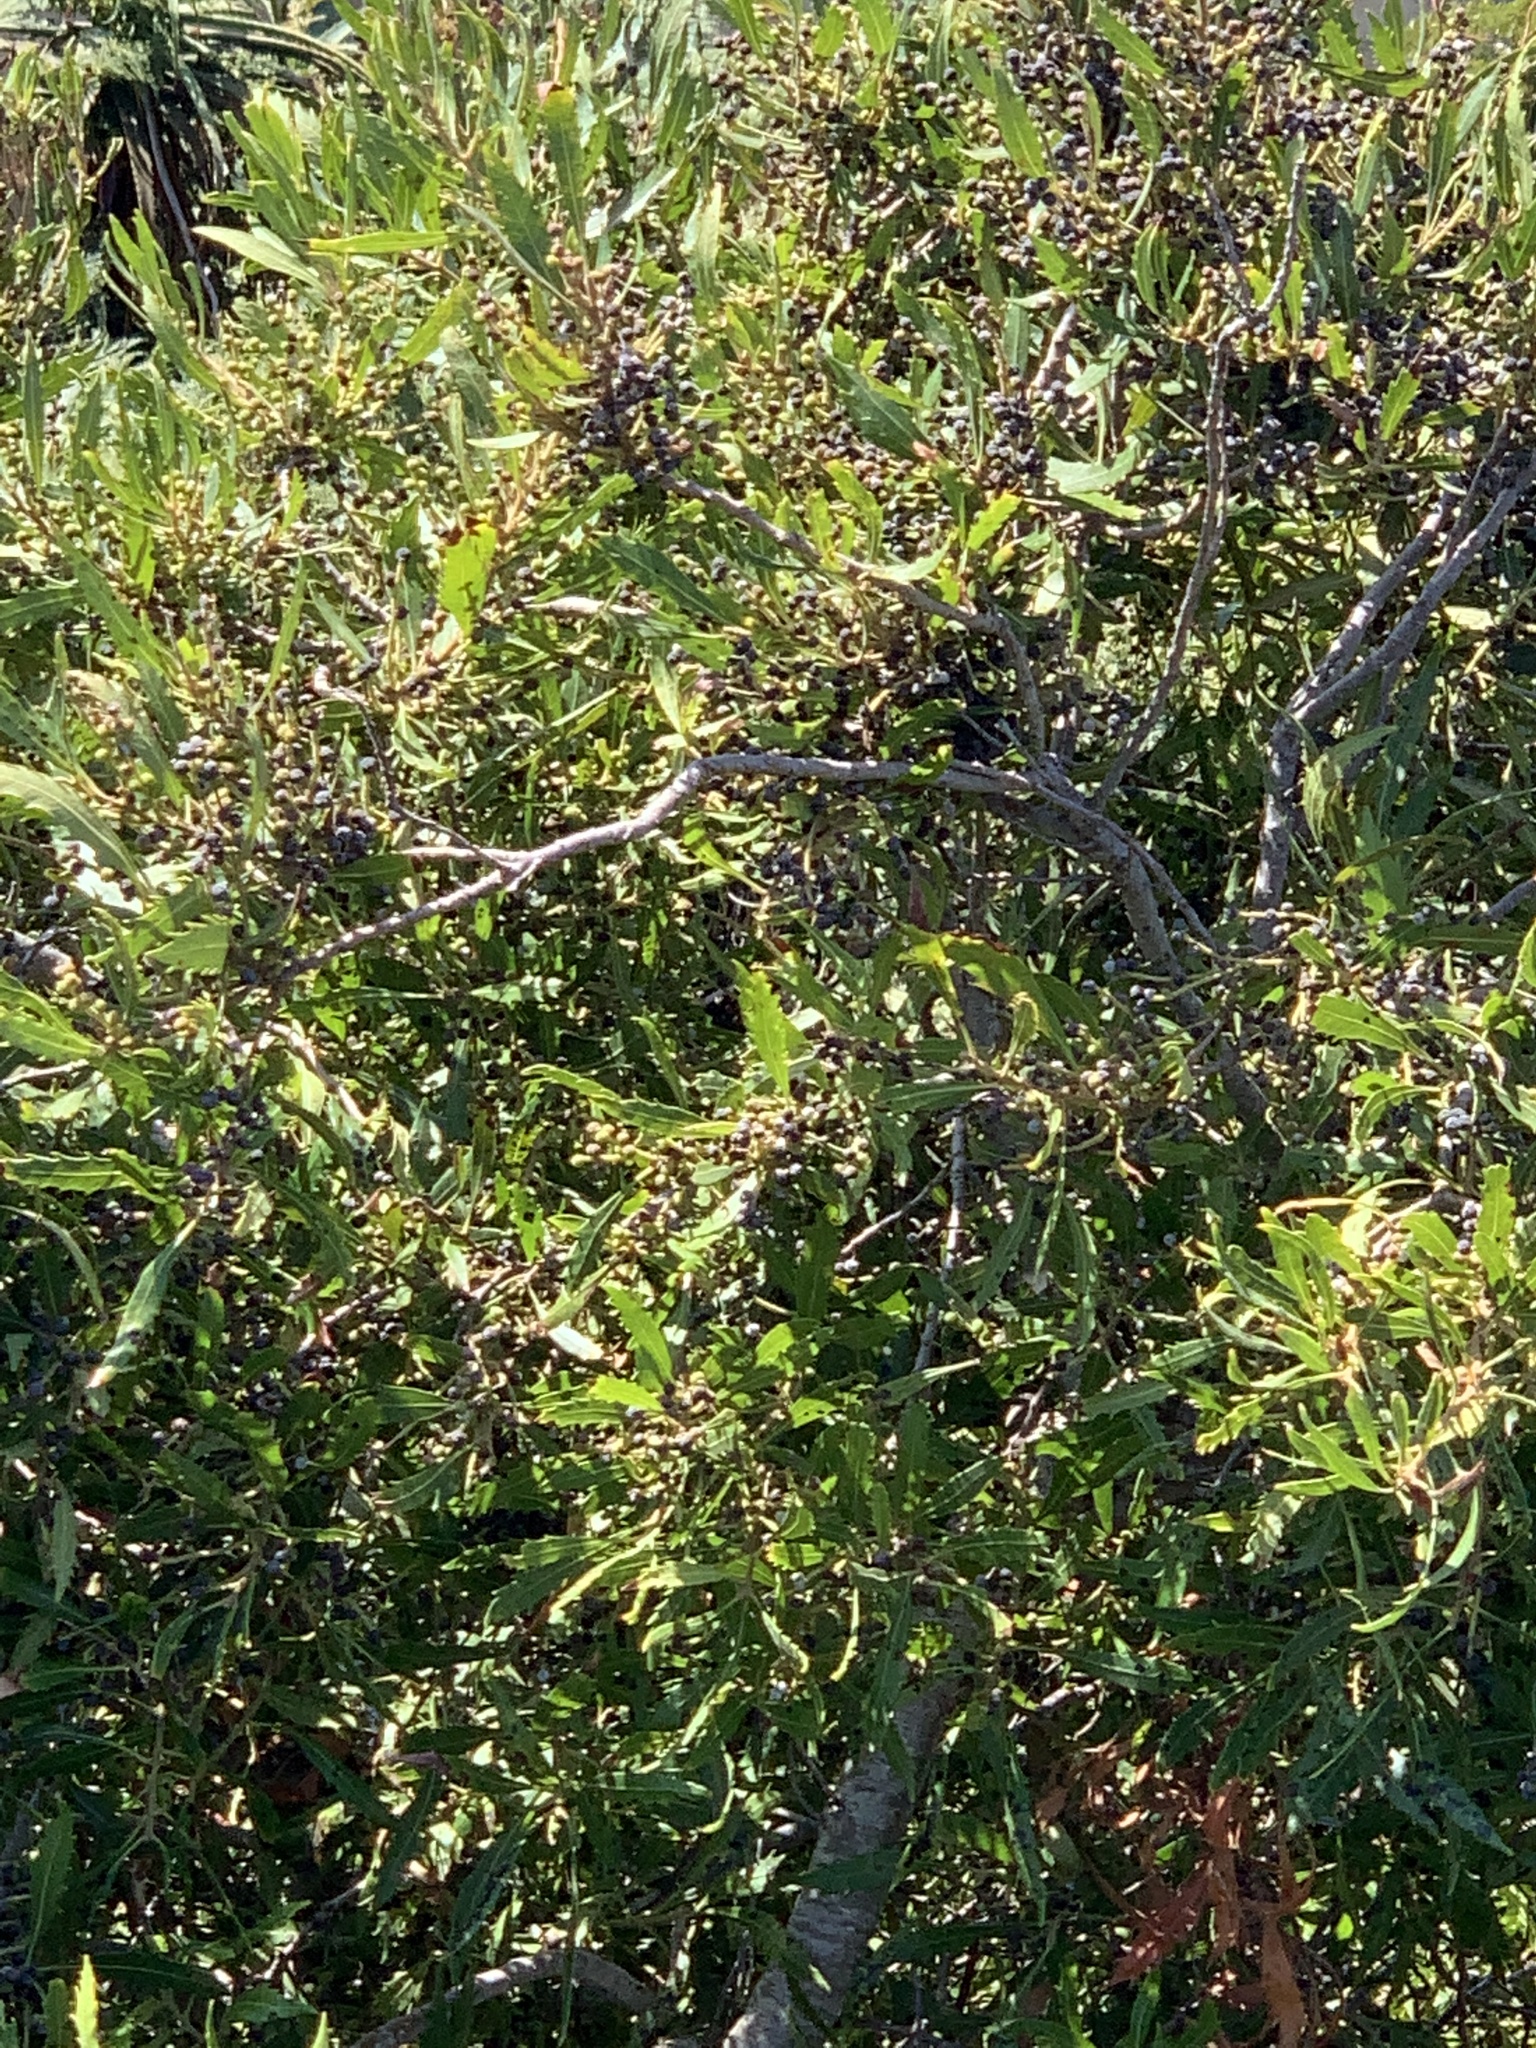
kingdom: Plantae
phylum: Tracheophyta
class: Magnoliopsida
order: Fagales
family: Myricaceae
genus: Morella
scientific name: Morella serrata
